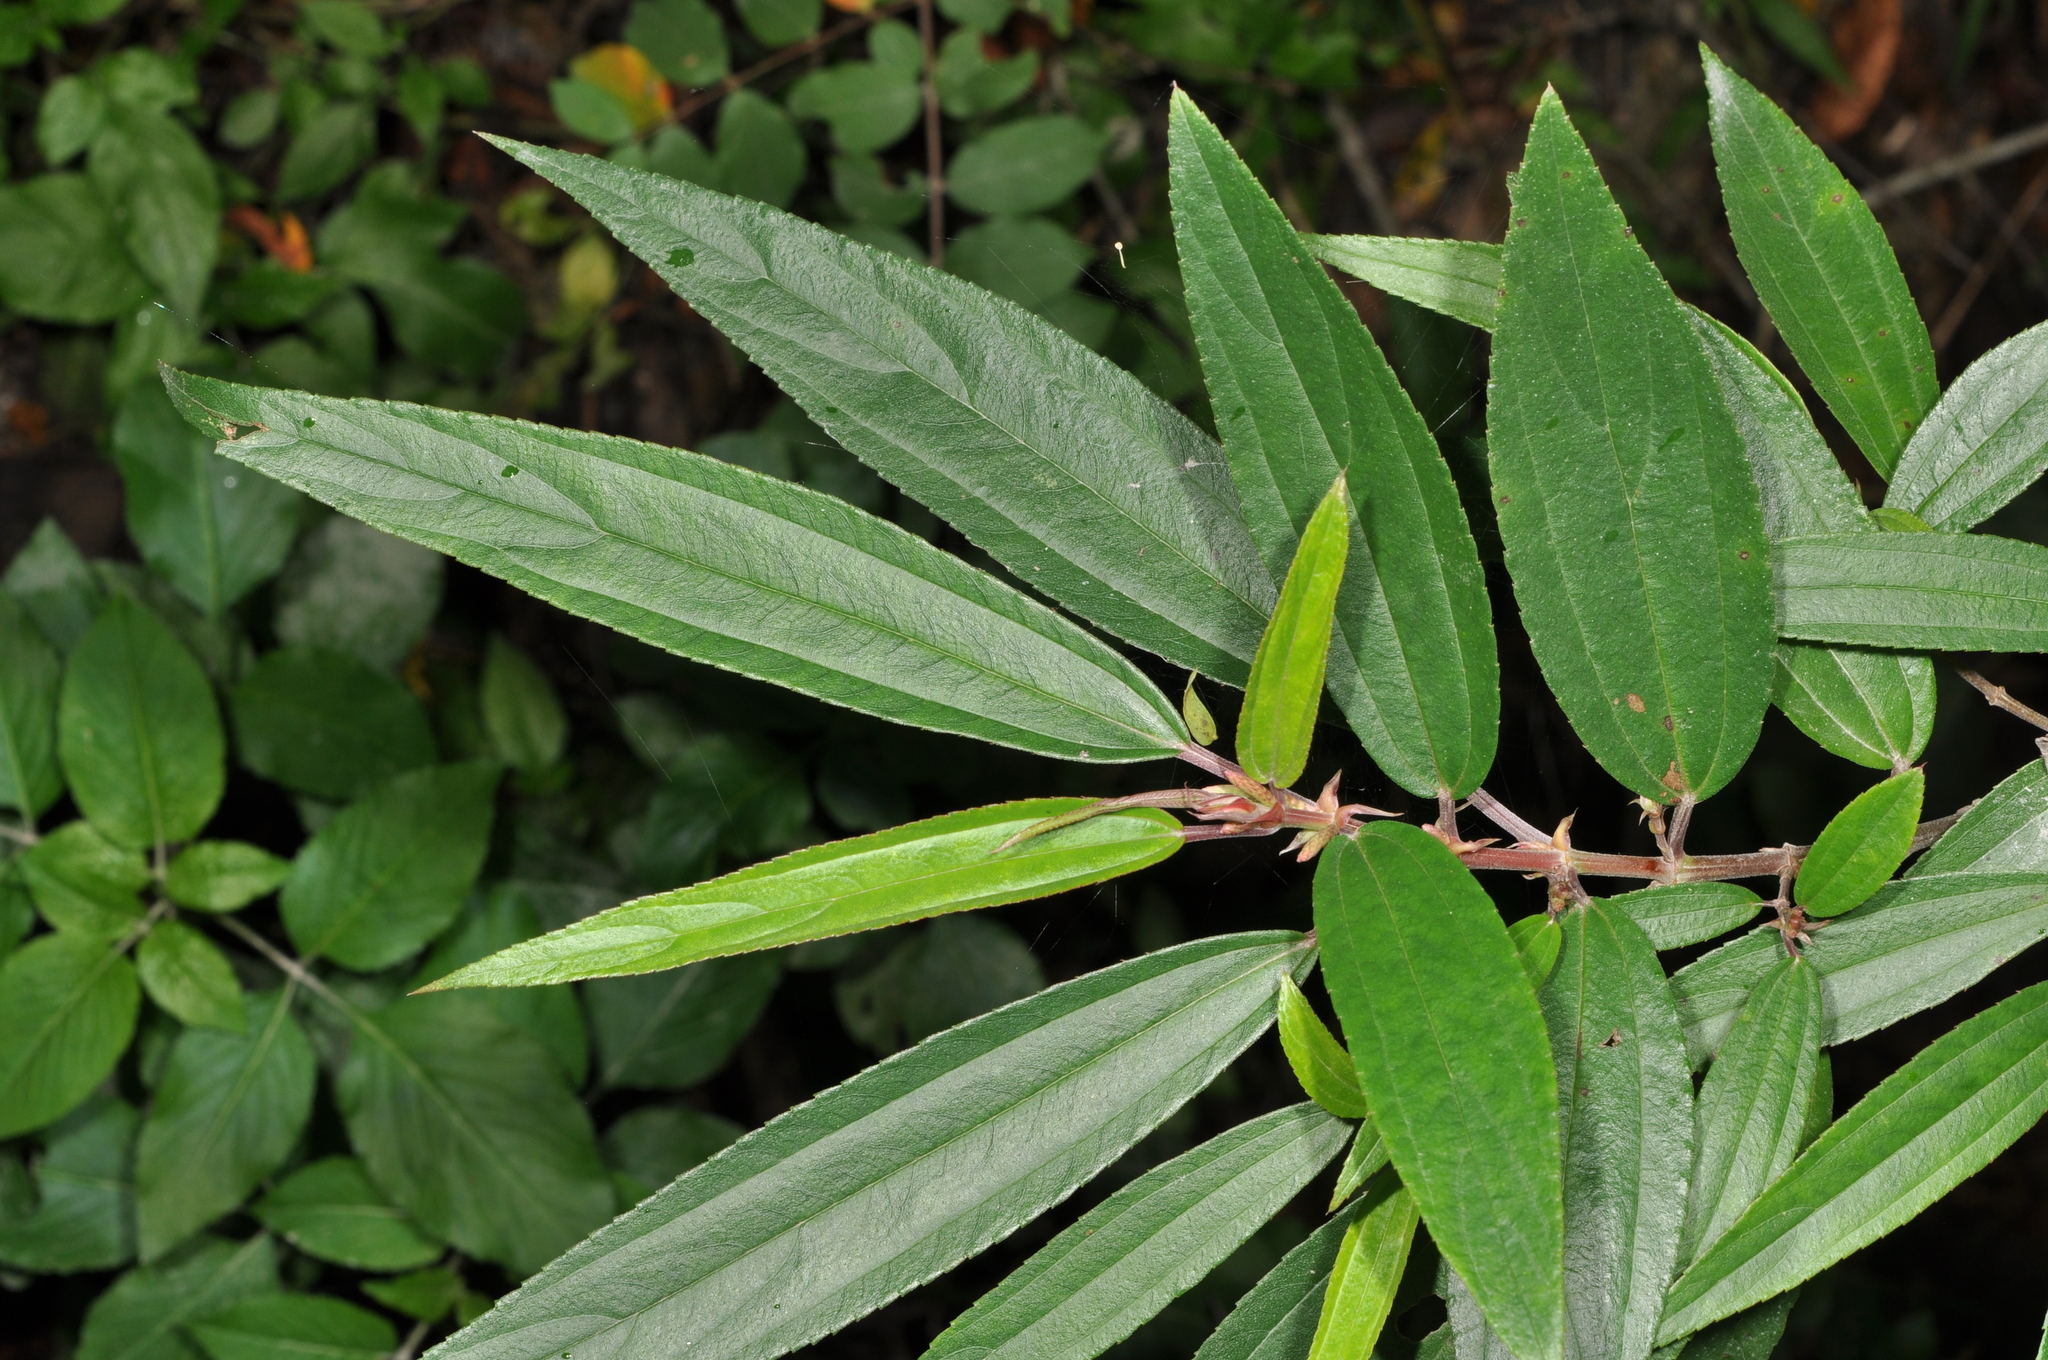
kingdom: Plantae
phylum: Tracheophyta
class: Magnoliopsida
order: Rosales
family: Urticaceae
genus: Boehmeria
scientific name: Boehmeria densiflora
